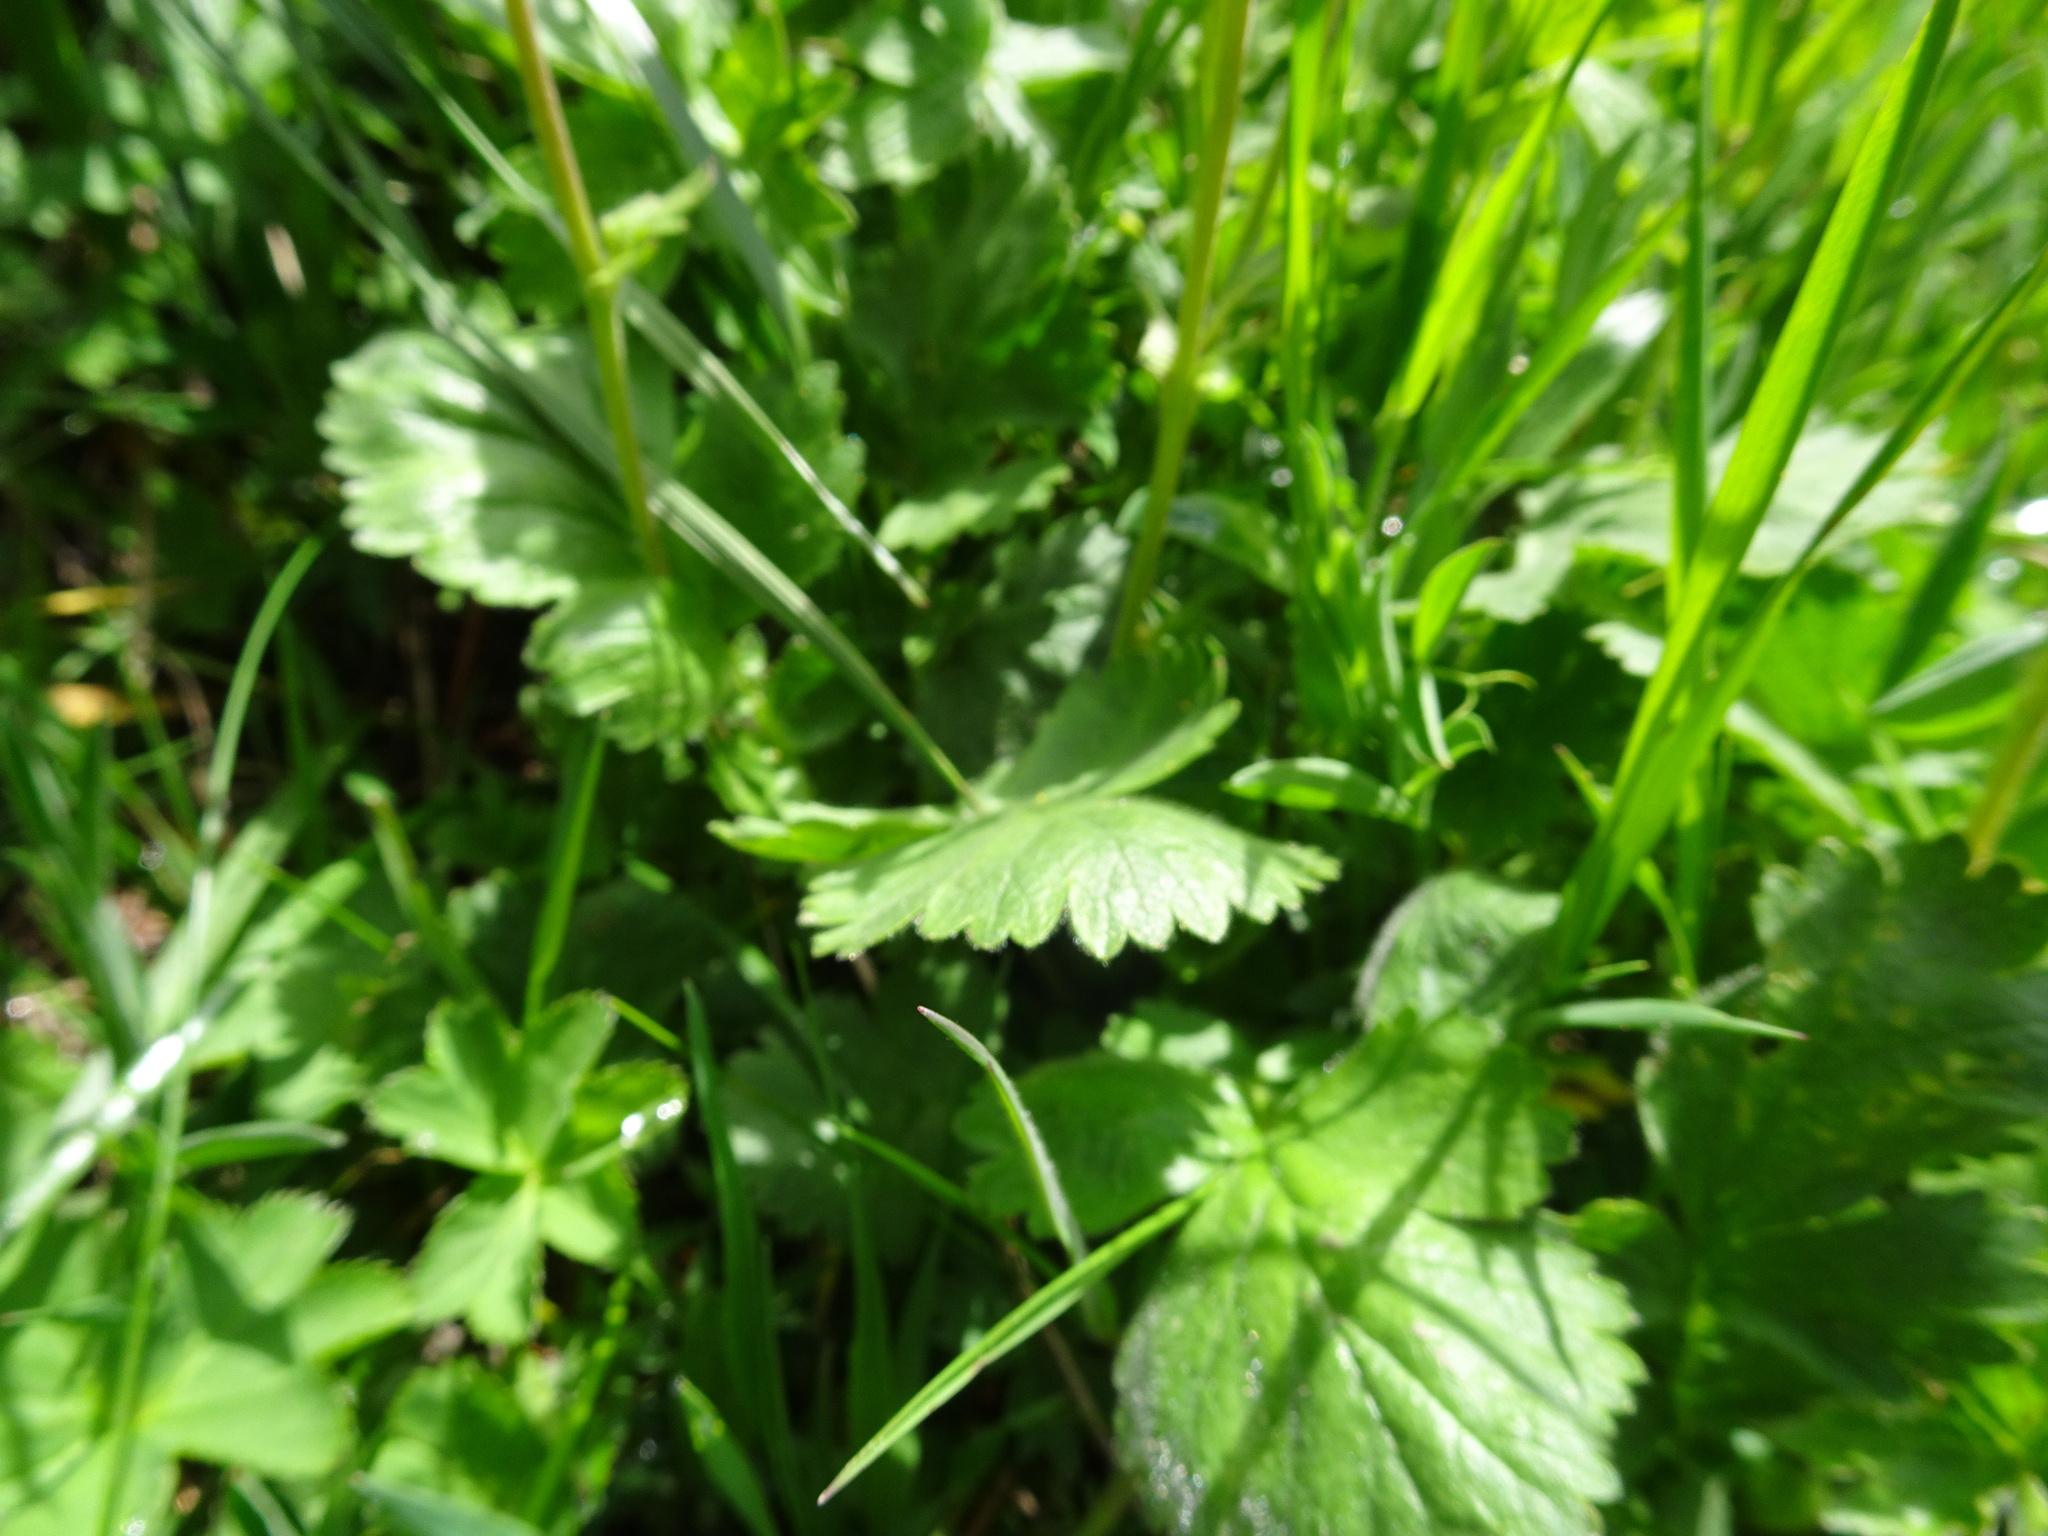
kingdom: Plantae
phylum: Tracheophyta
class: Magnoliopsida
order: Rosales
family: Rosaceae
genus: Geum
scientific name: Geum montanum
